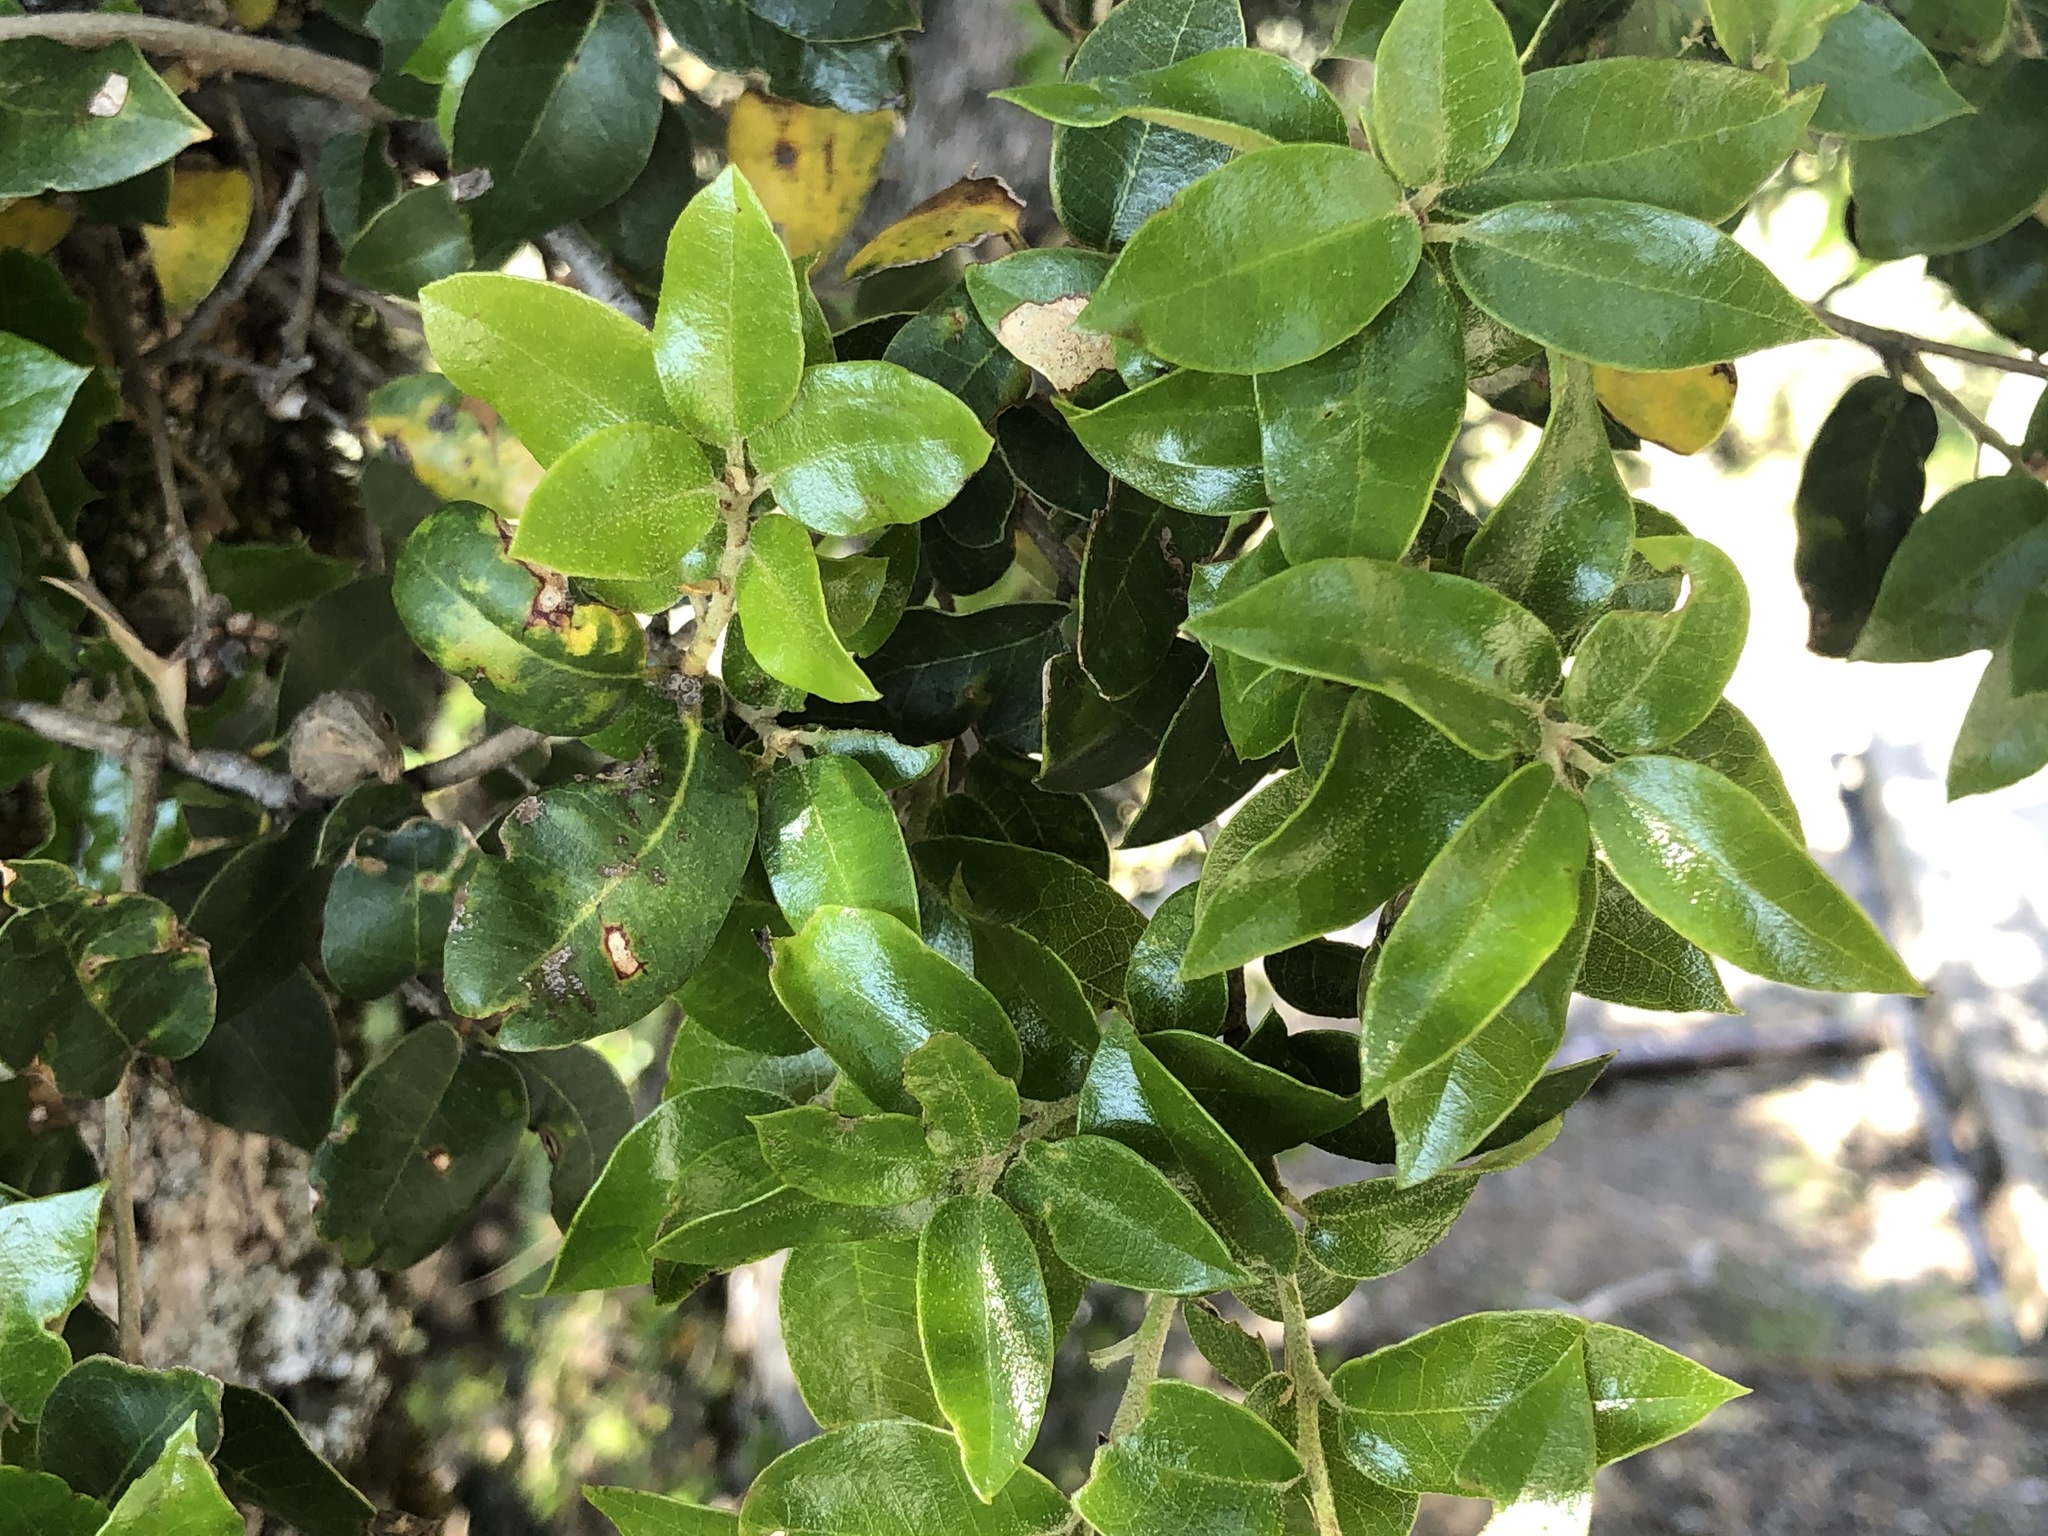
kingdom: Plantae
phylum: Tracheophyta
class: Magnoliopsida
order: Fagales
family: Fagaceae
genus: Quercus
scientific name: Quercus chrysolepis
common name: Canyon live oak
